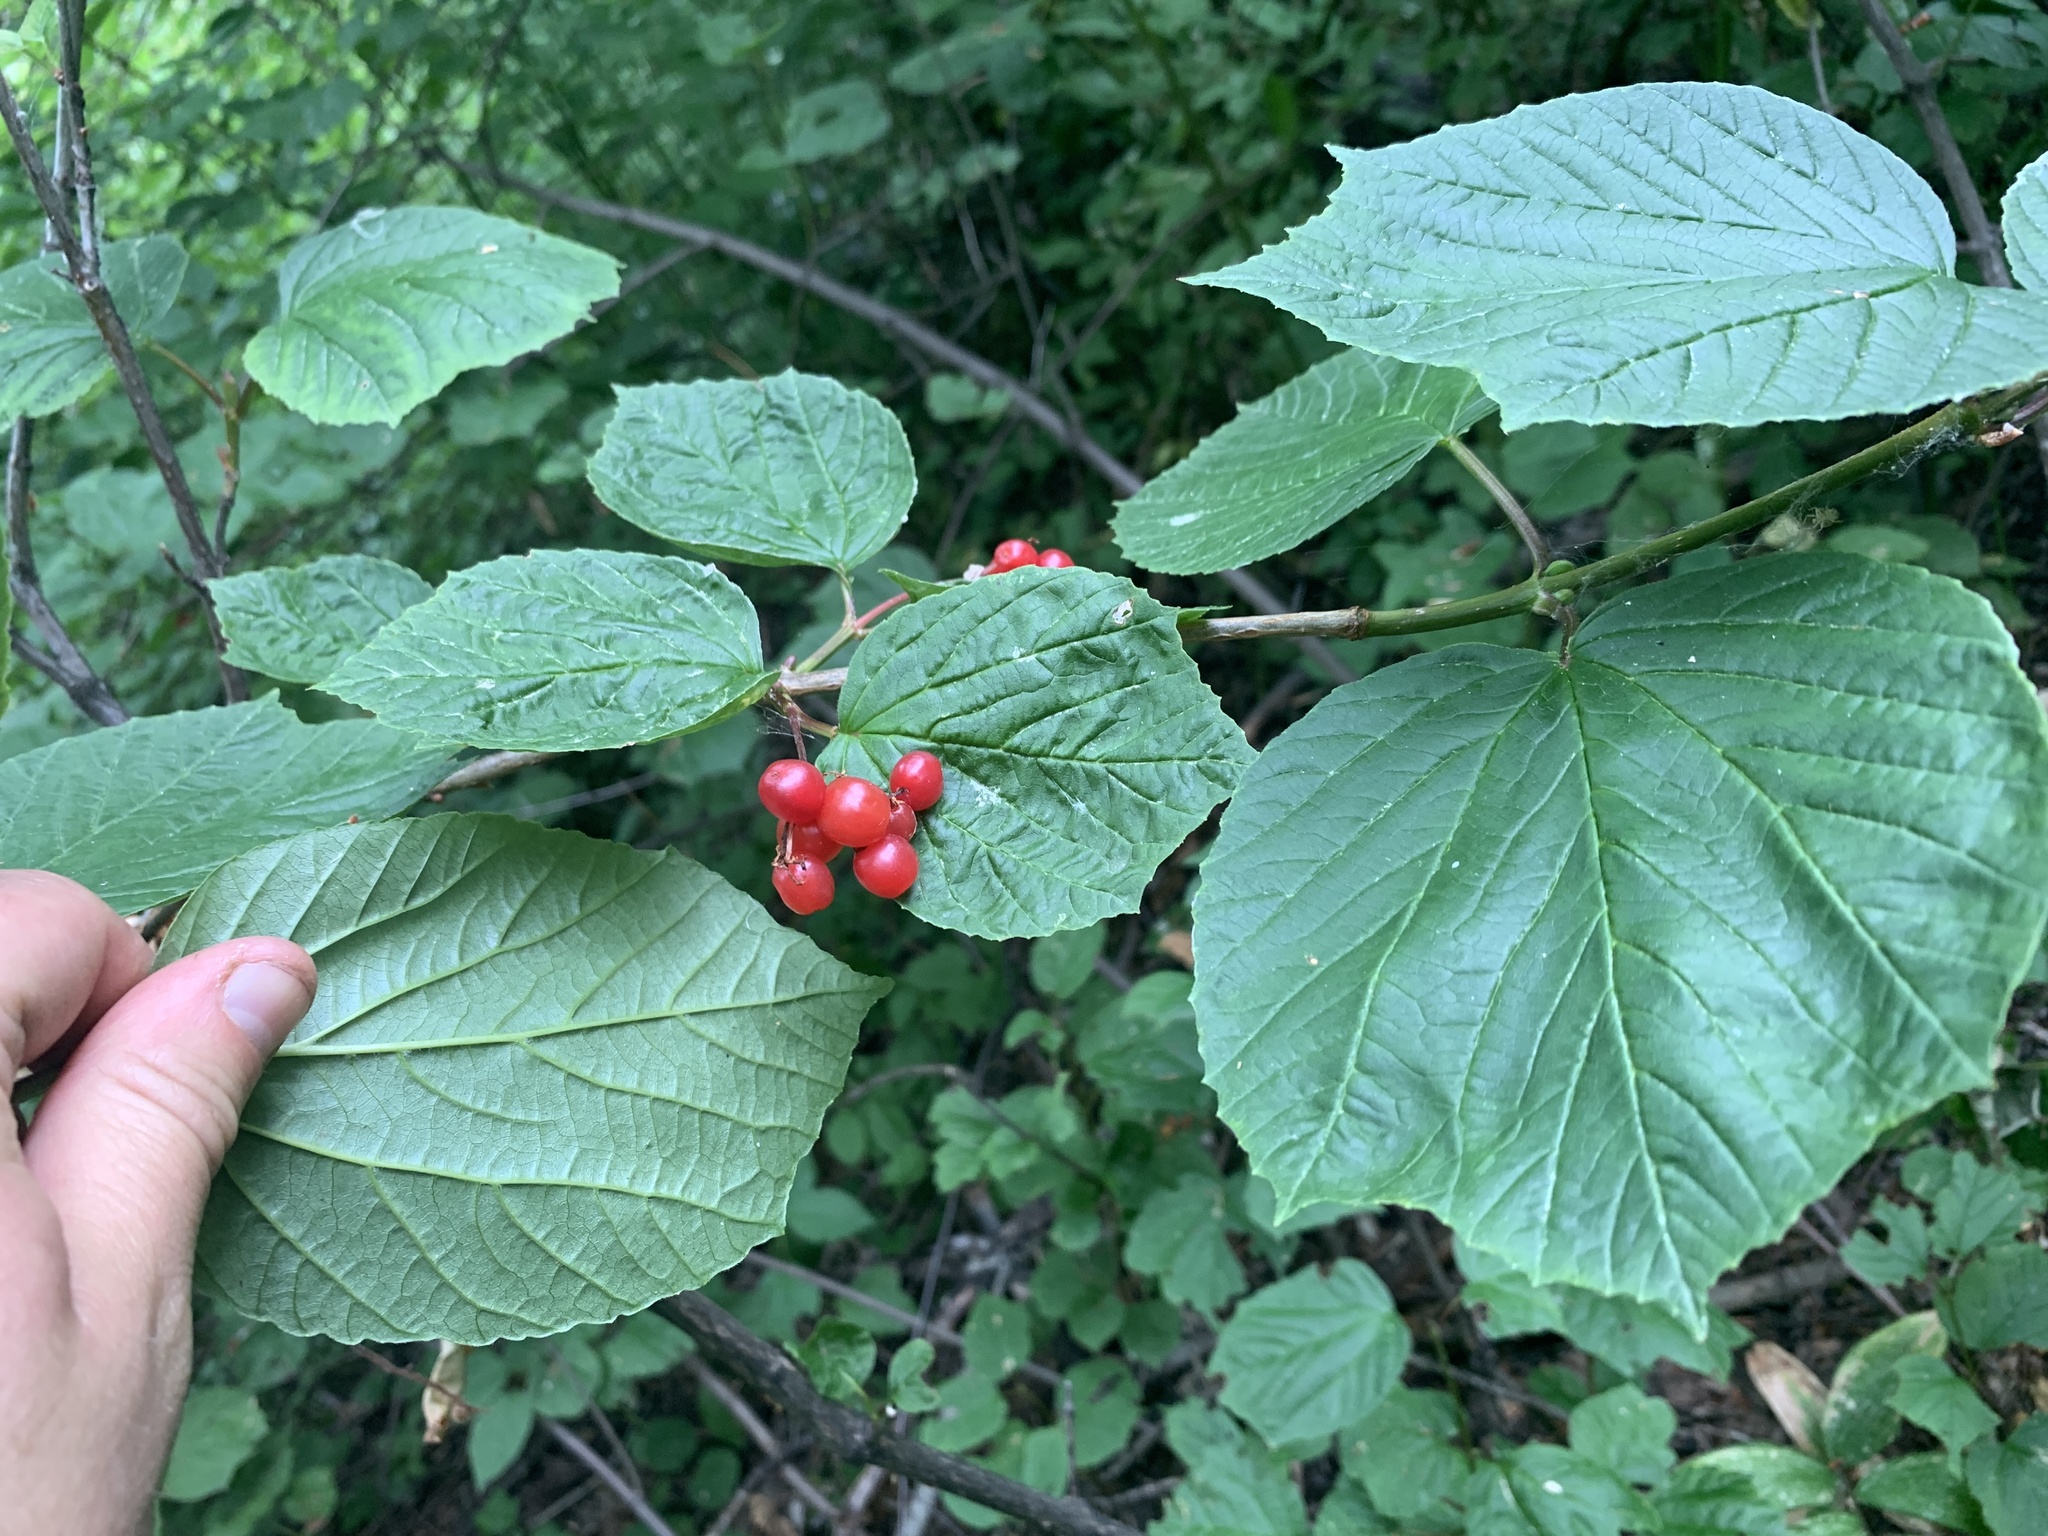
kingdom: Plantae
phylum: Tracheophyta
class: Magnoliopsida
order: Dipsacales
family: Viburnaceae
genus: Viburnum
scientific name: Viburnum edule
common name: Mooseberry
